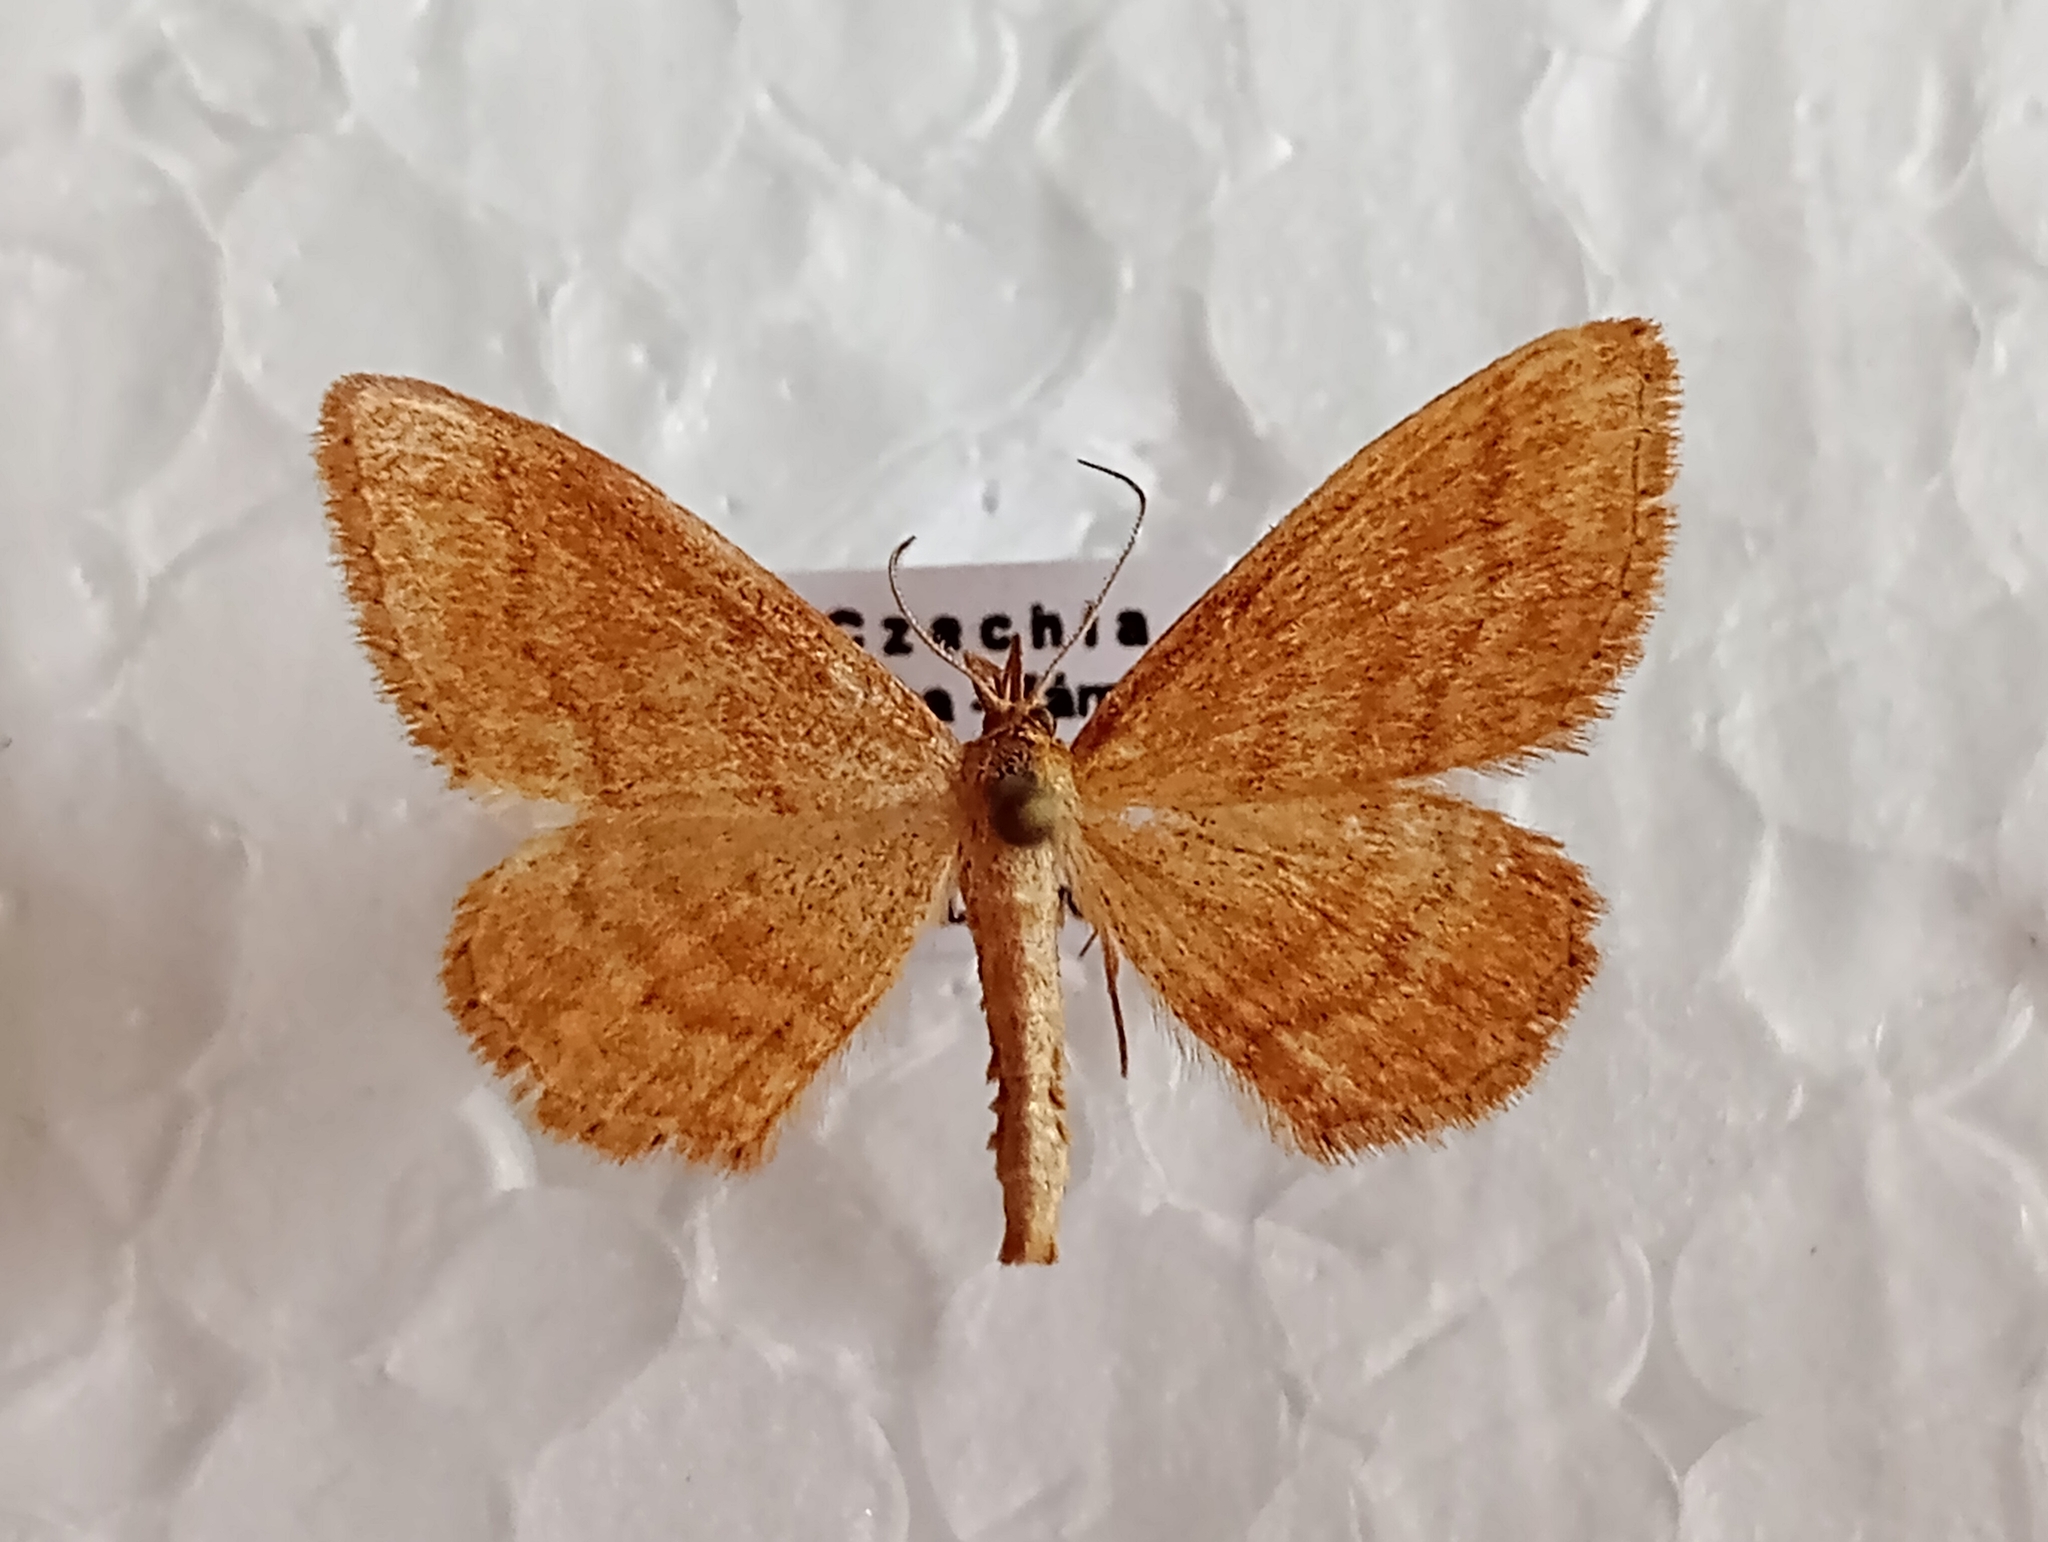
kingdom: Animalia
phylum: Arthropoda
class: Insecta
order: Lepidoptera
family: Geometridae
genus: Idaea
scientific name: Idaea ochrata
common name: Bright wave
